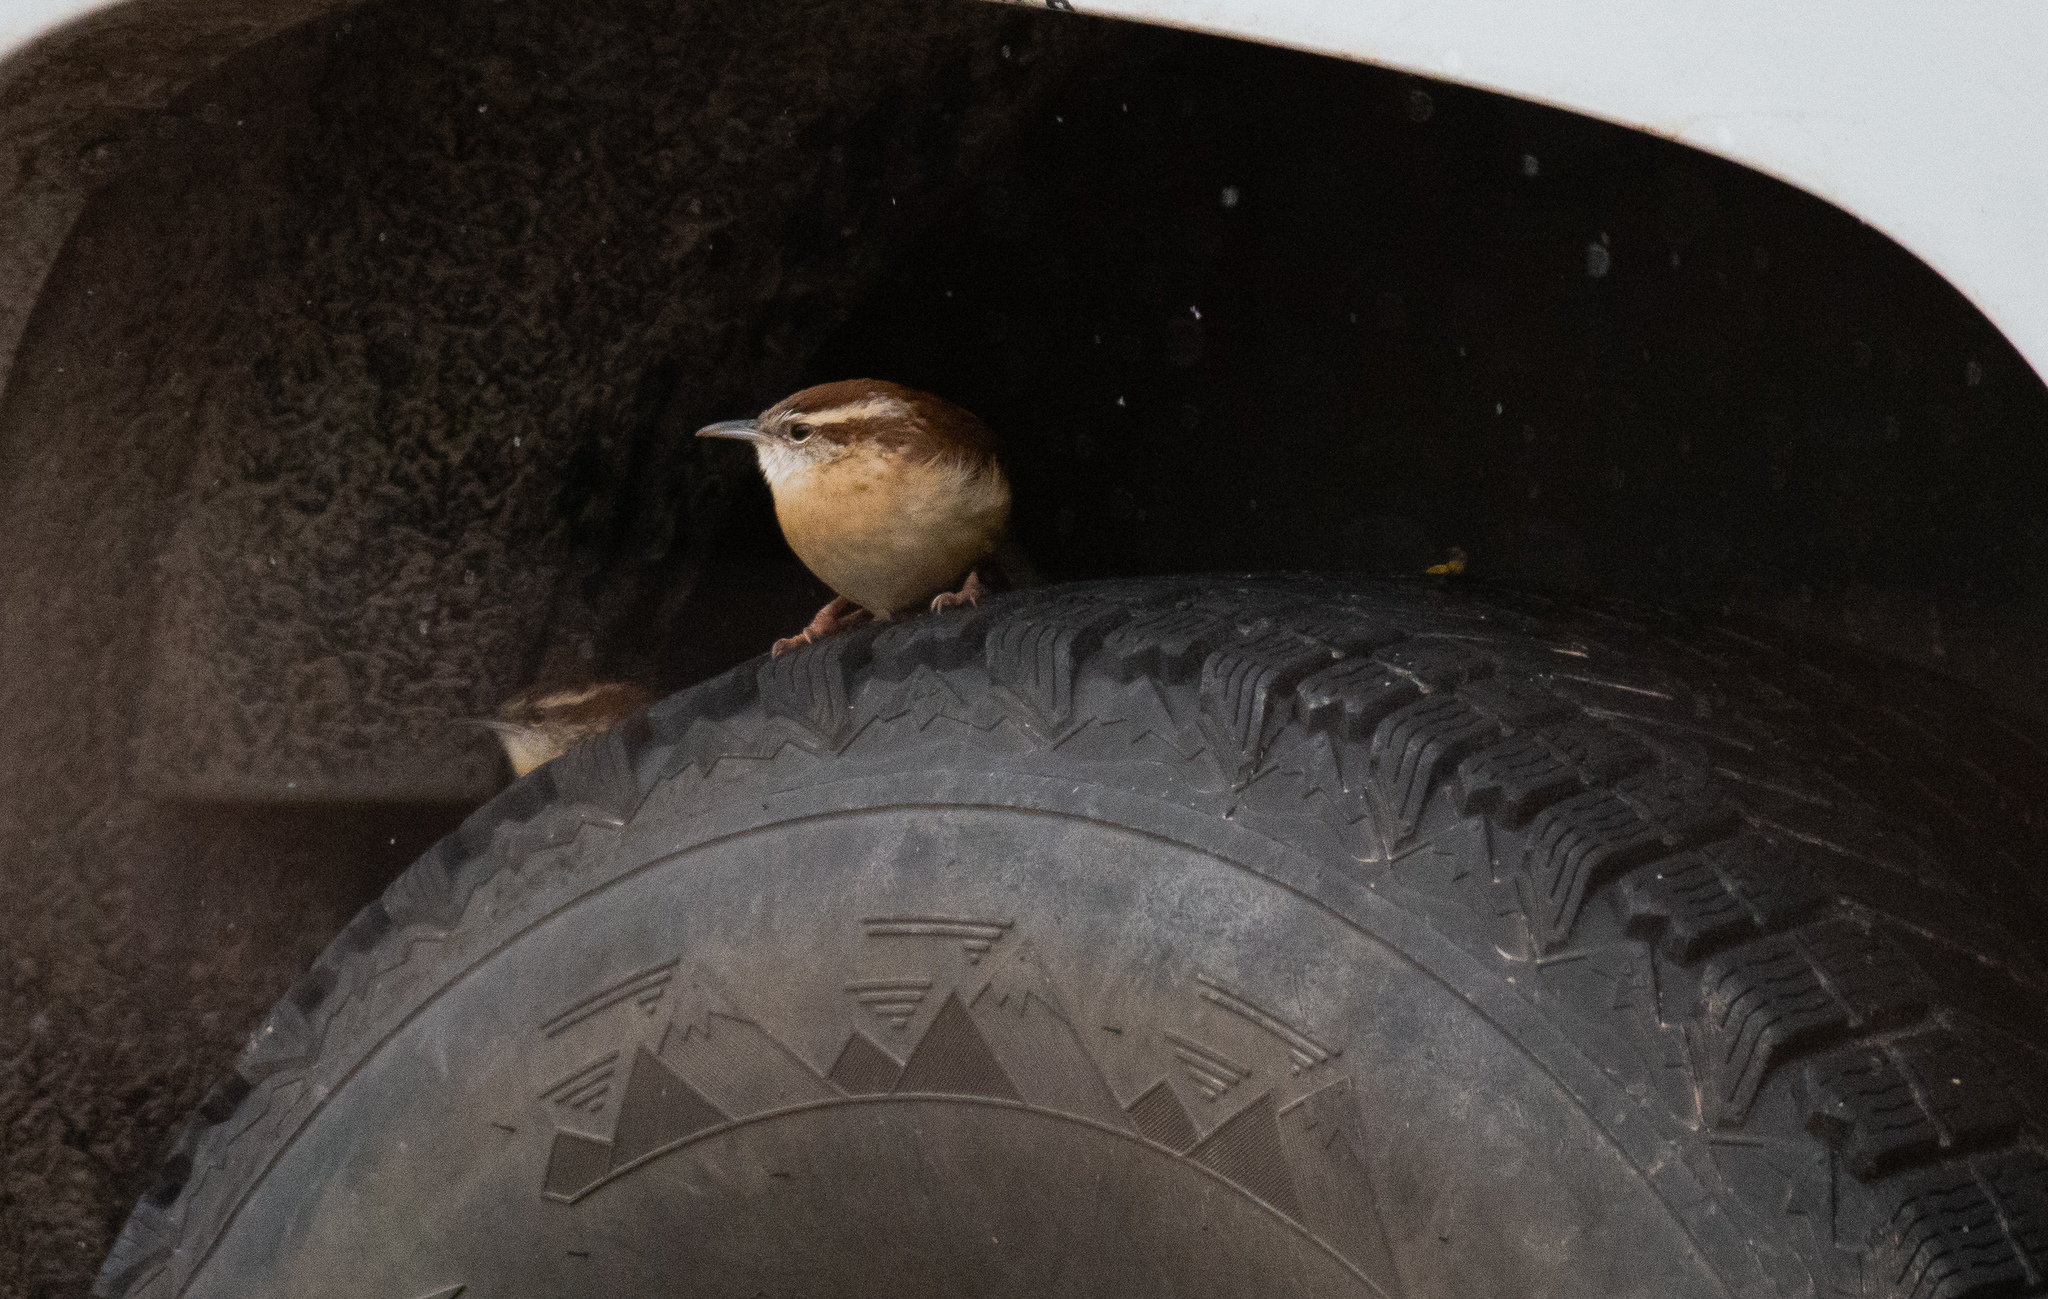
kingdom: Animalia
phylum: Chordata
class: Aves
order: Passeriformes
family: Troglodytidae
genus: Thryothorus
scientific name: Thryothorus ludovicianus
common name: Carolina wren
